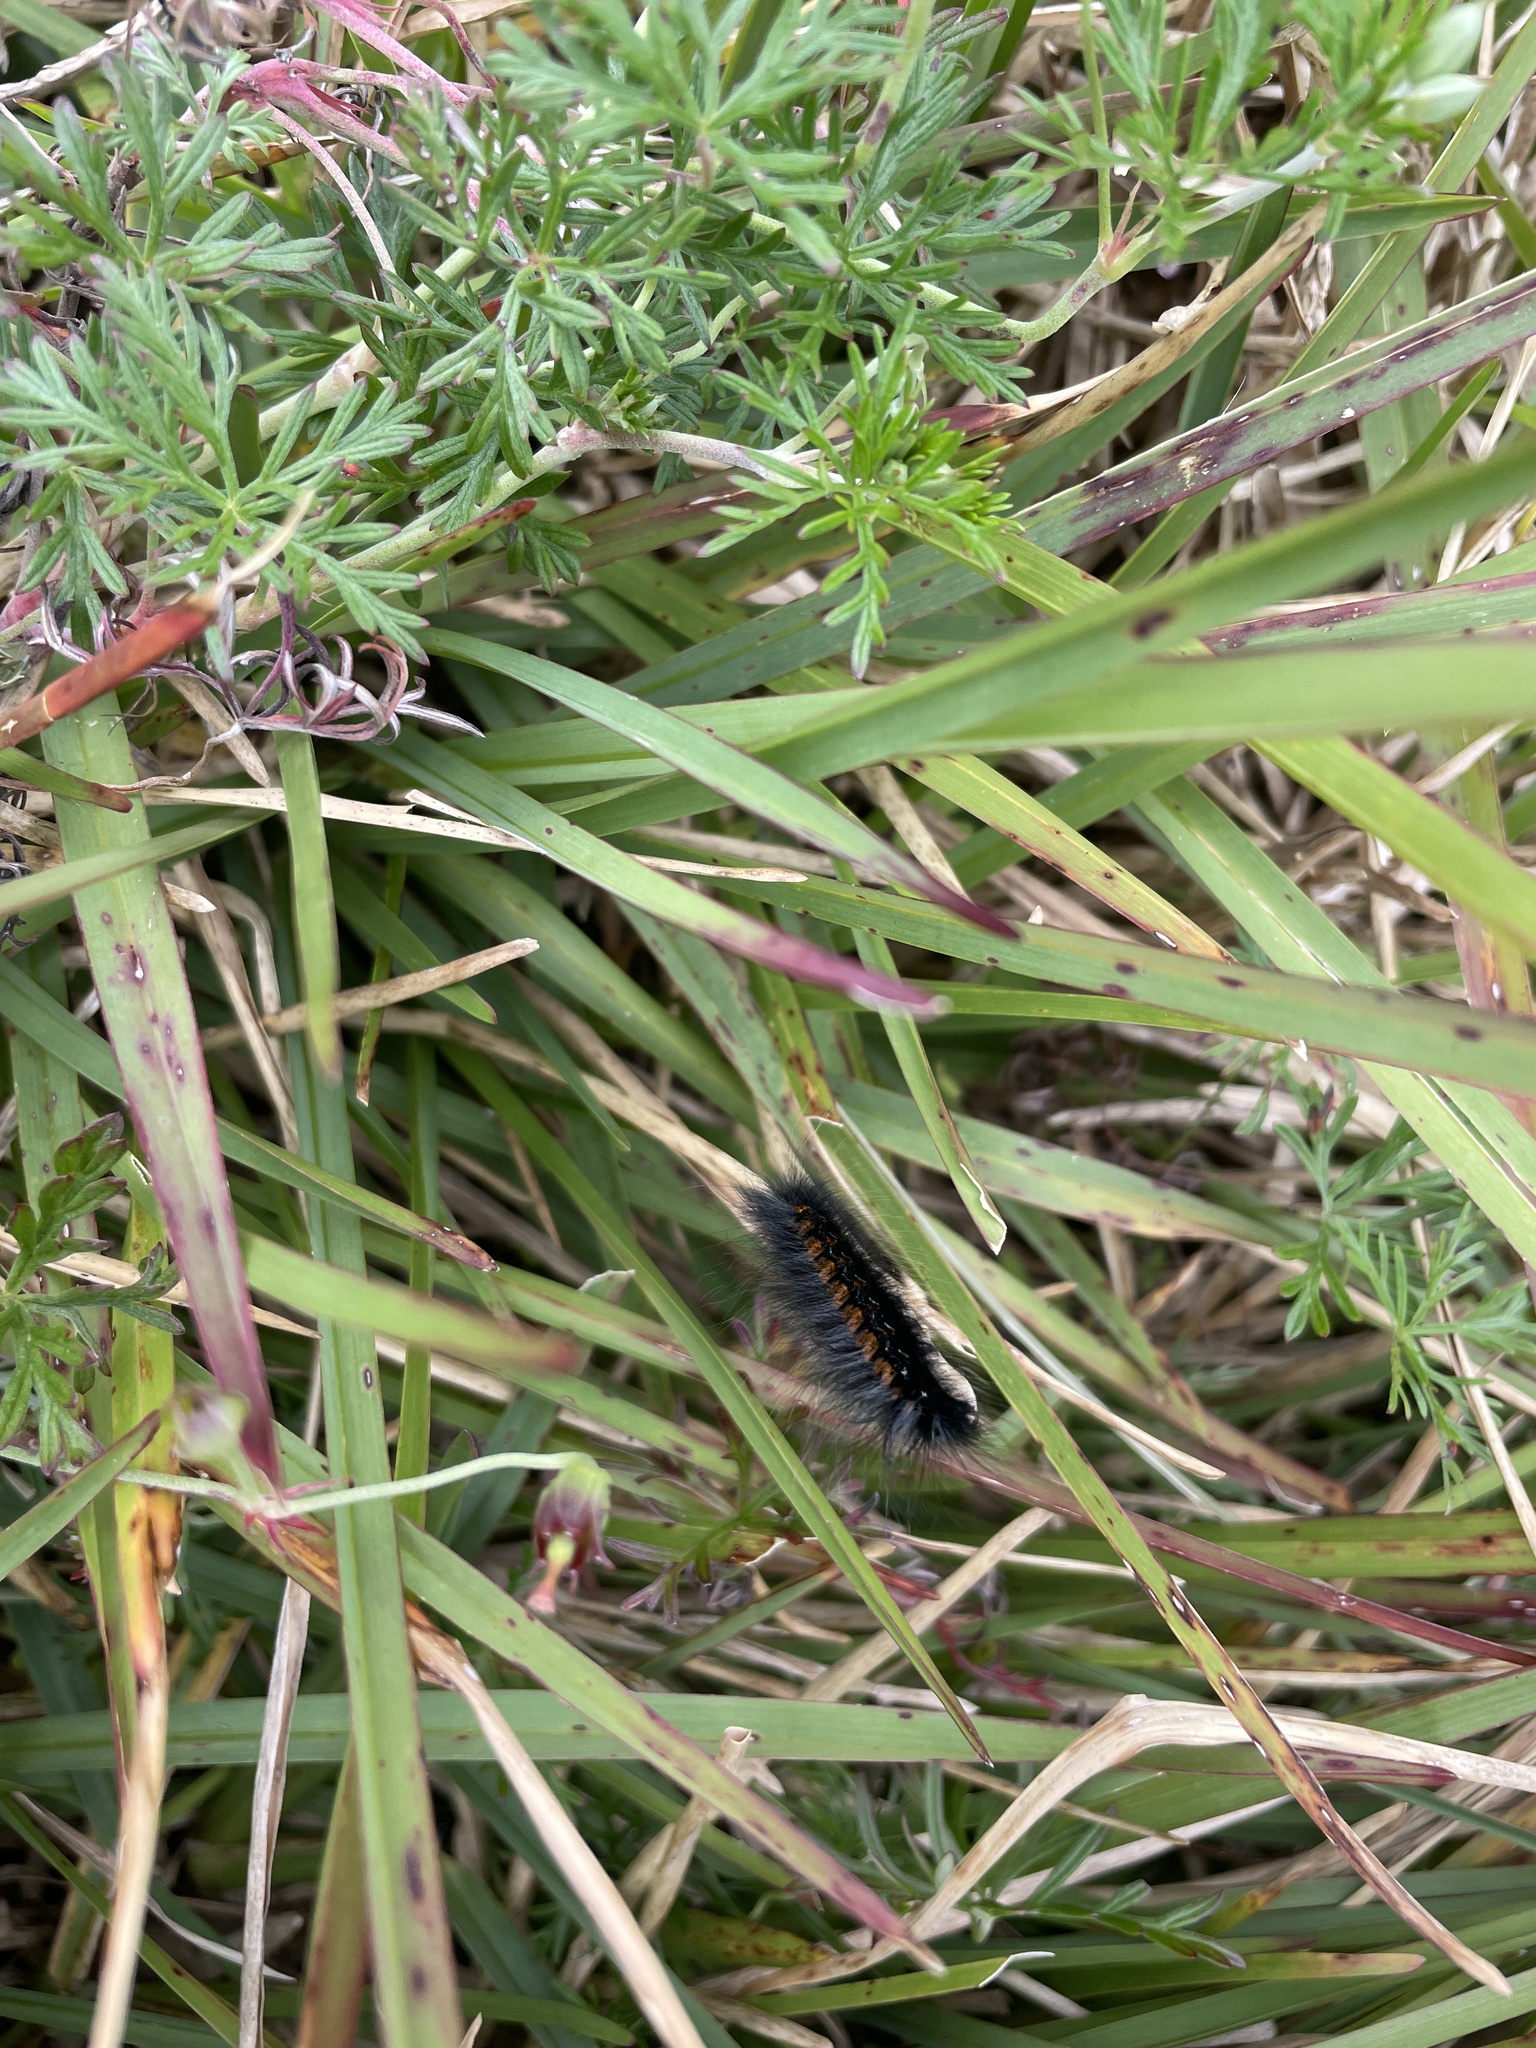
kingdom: Animalia
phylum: Arthropoda
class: Insecta
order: Lepidoptera
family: Lasiocampidae
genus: Mesocelis
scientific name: Mesocelis monticola
